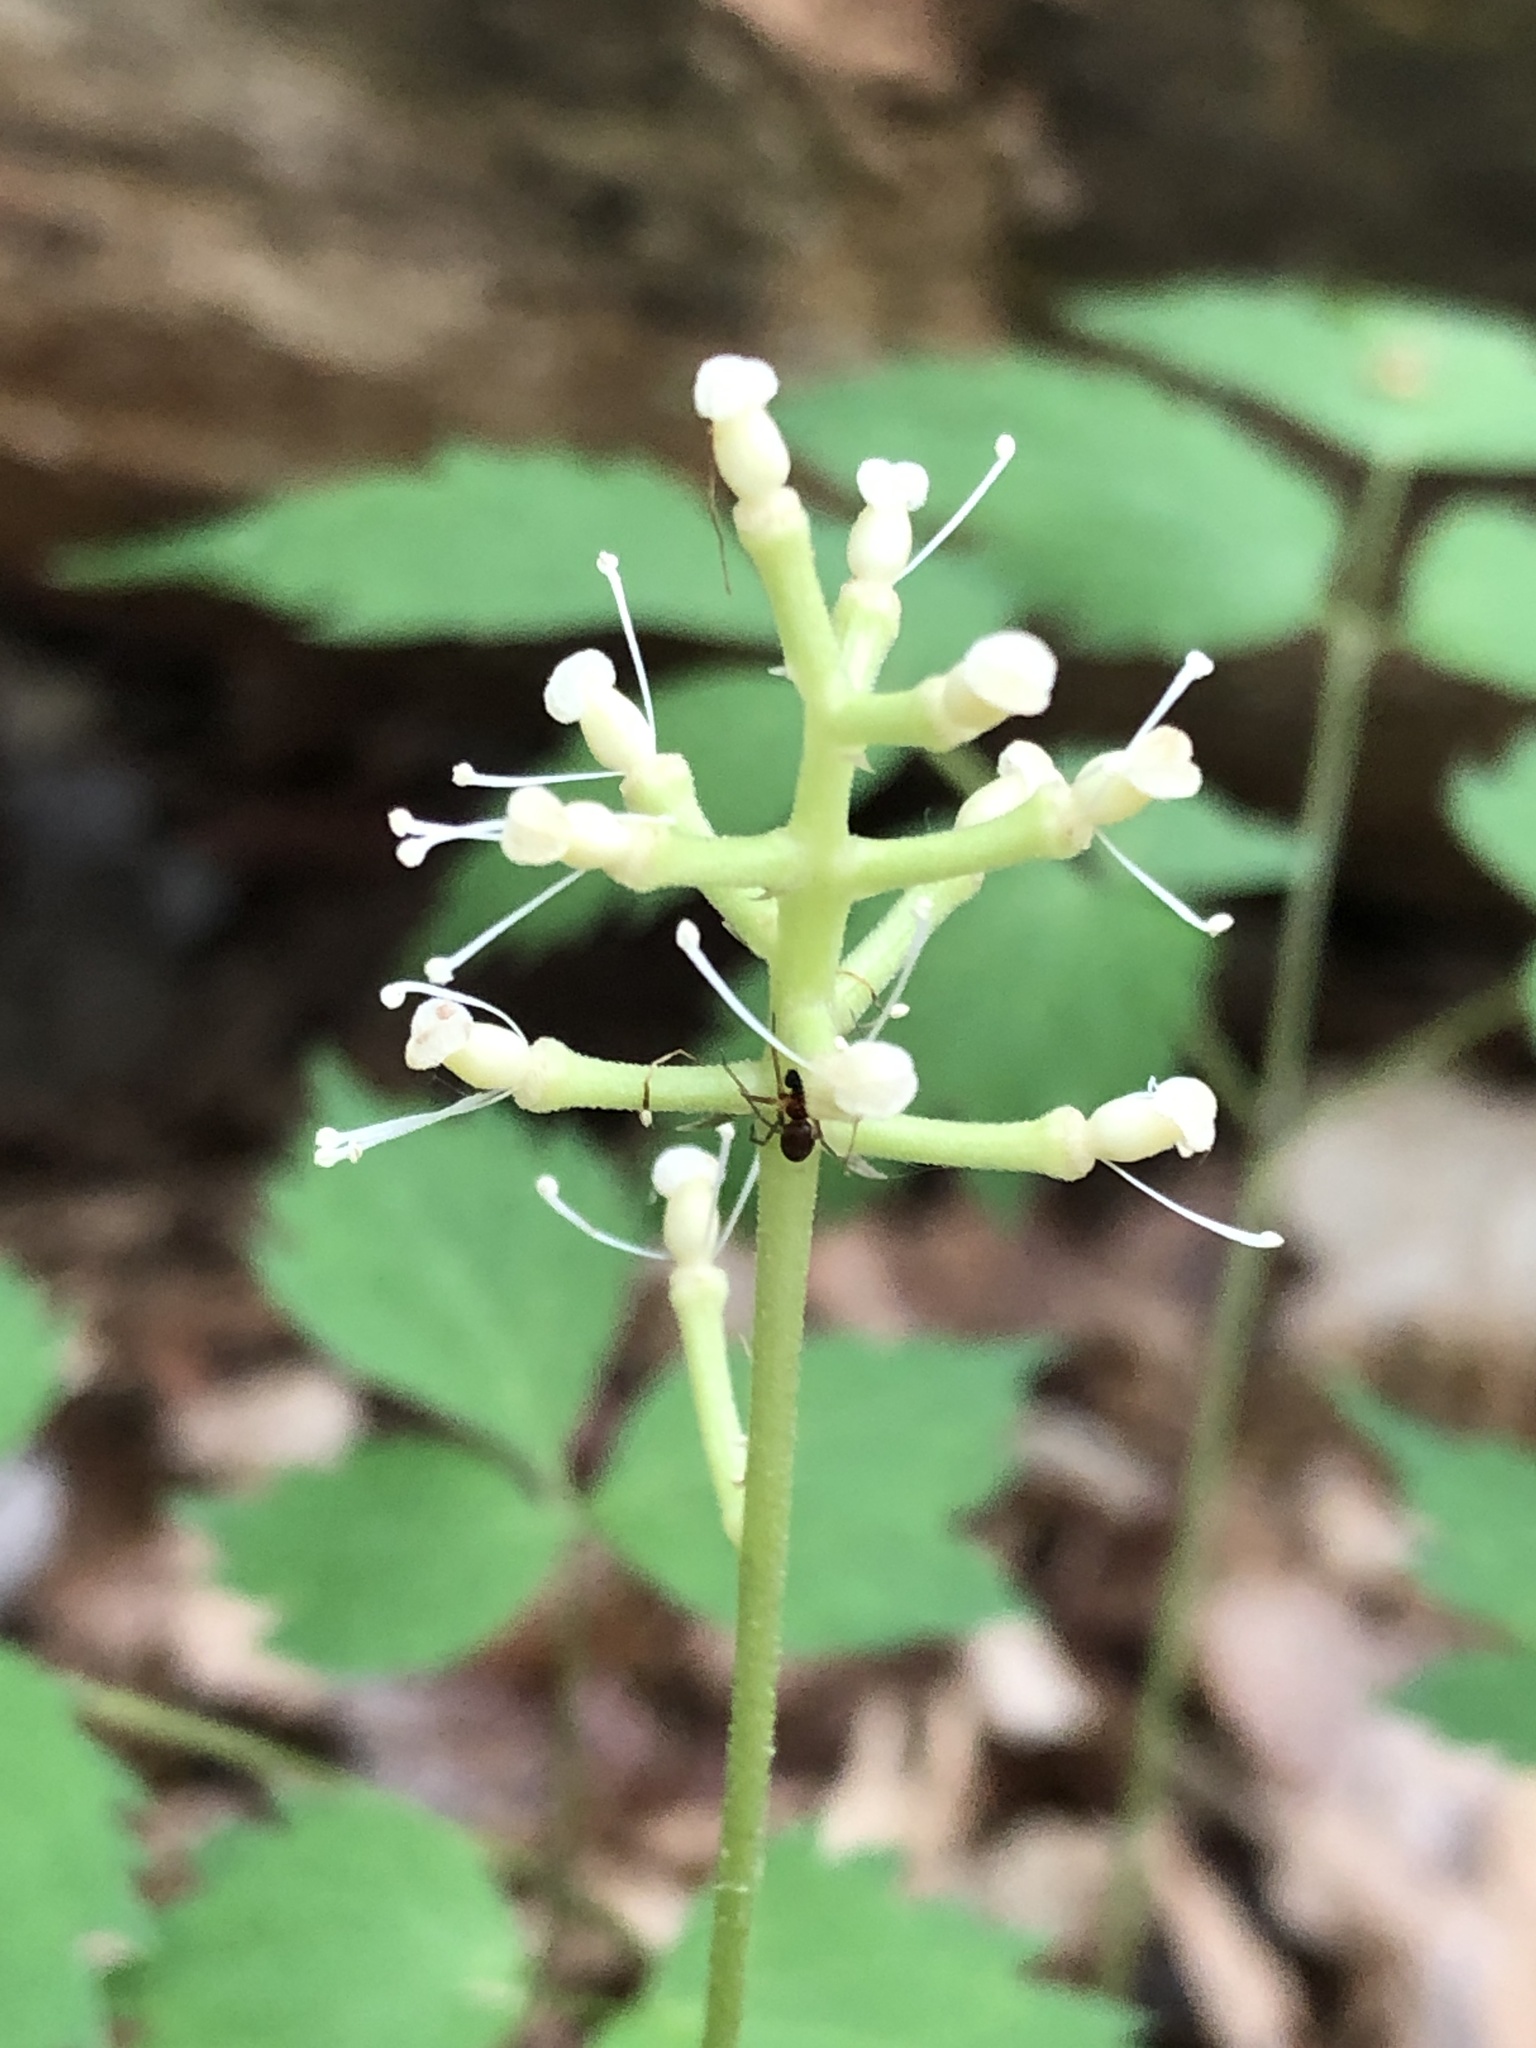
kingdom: Plantae
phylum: Tracheophyta
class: Magnoliopsida
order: Ranunculales
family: Ranunculaceae
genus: Actaea
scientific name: Actaea pachypoda
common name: Doll's-eyes
